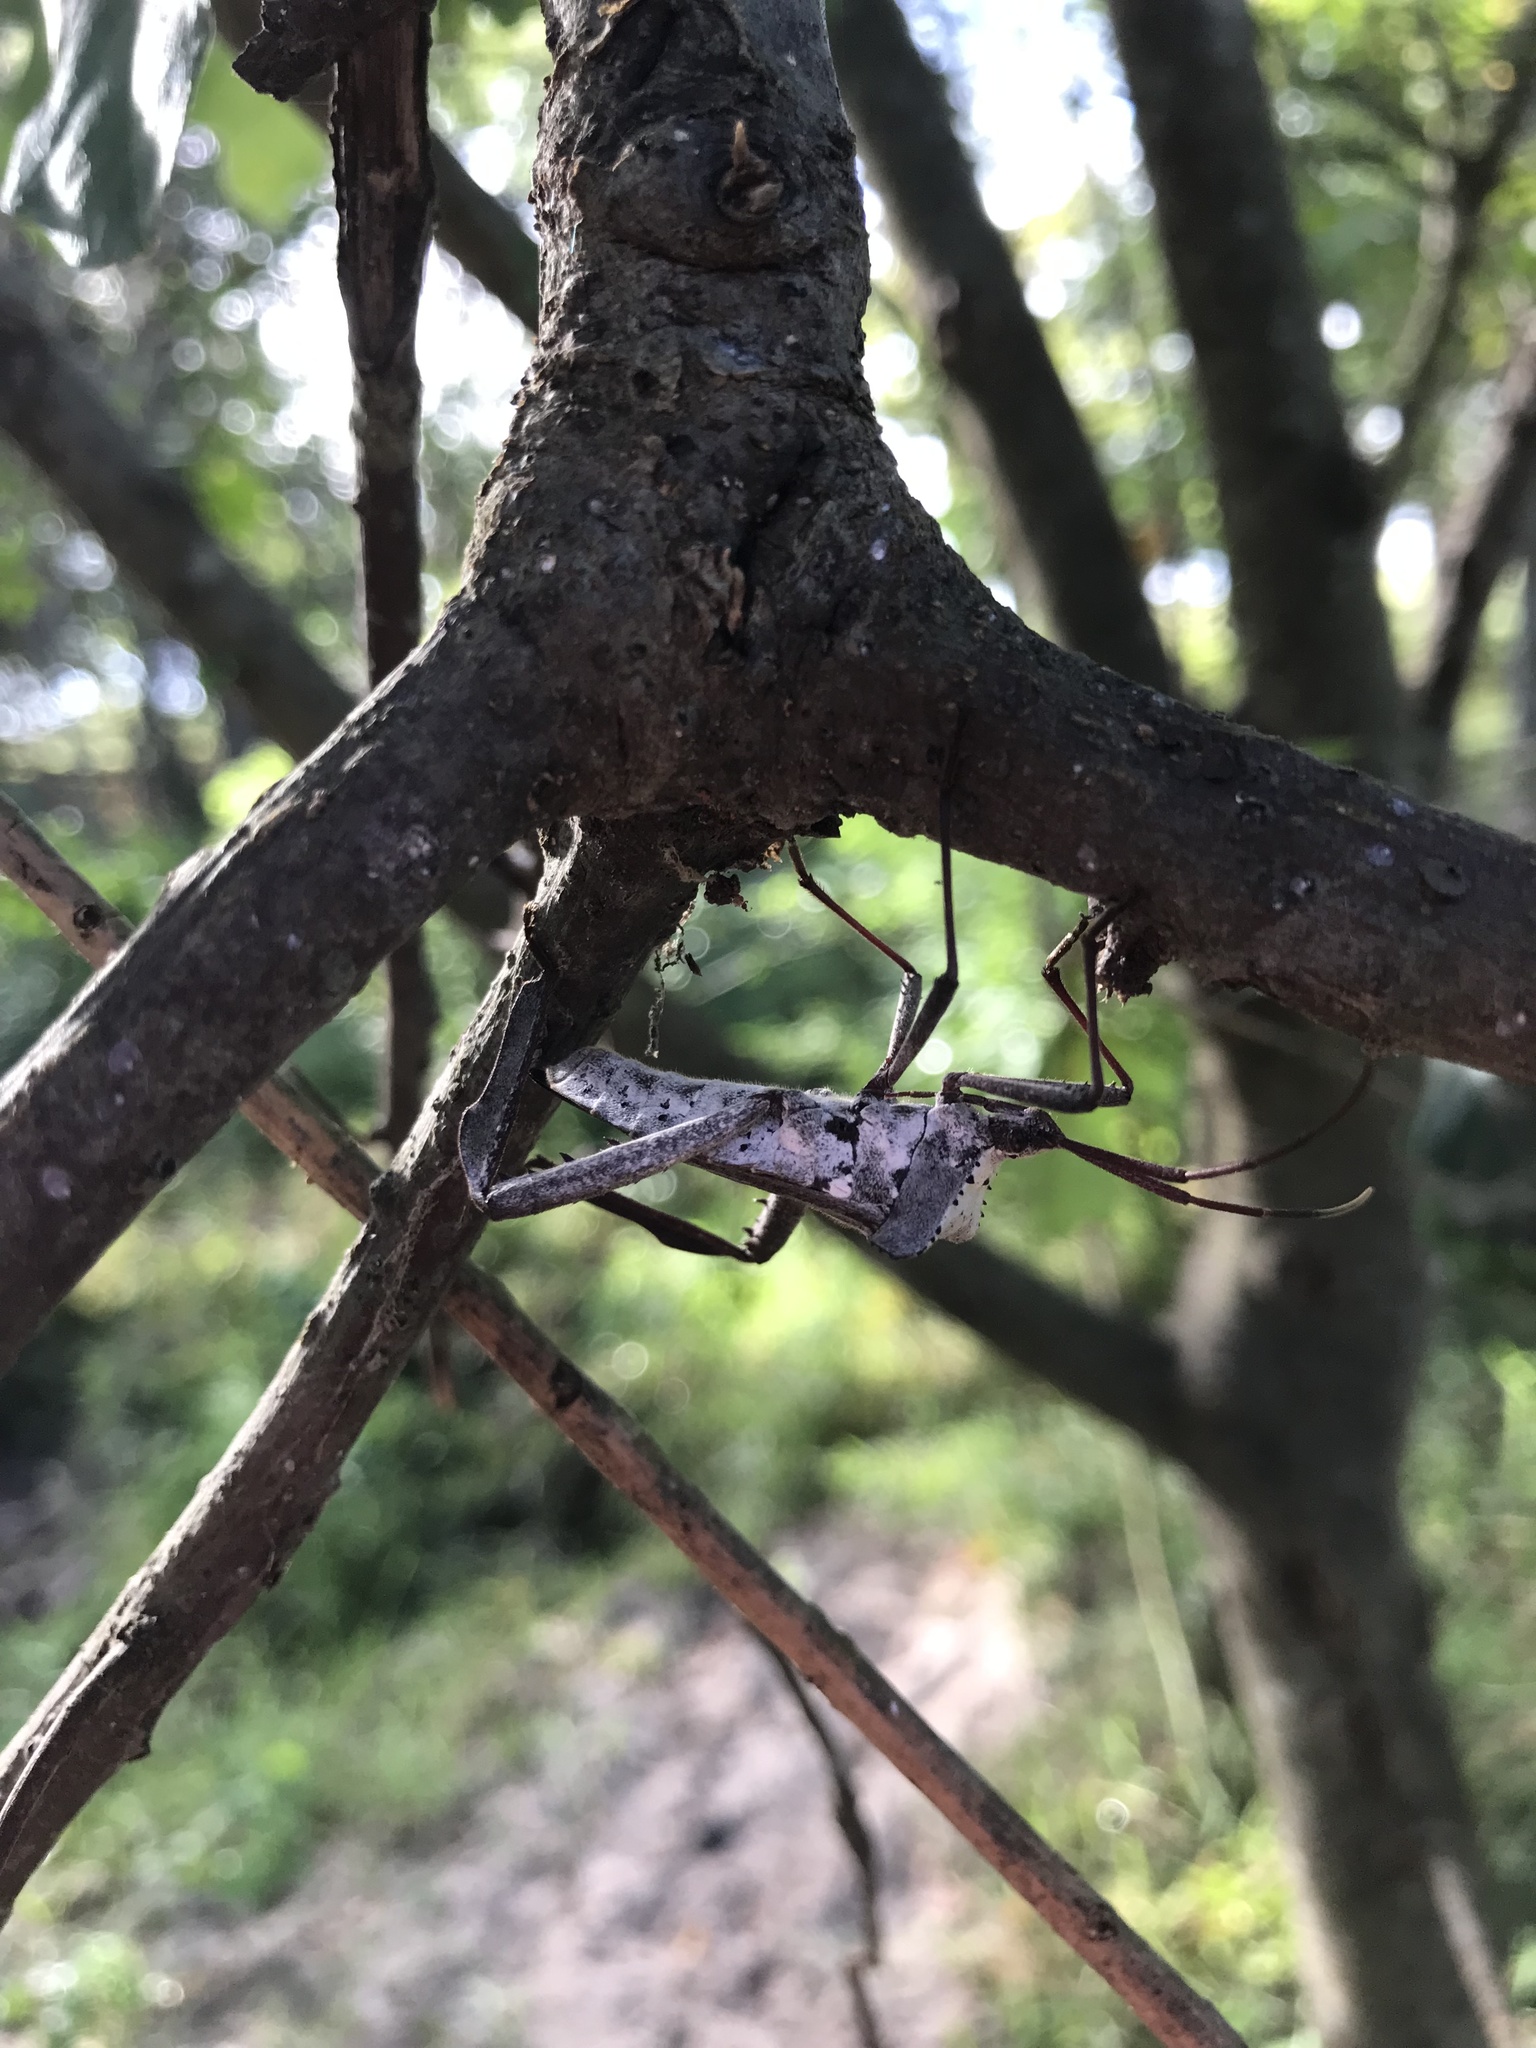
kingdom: Animalia
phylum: Arthropoda
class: Insecta
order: Hemiptera
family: Coreidae
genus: Acanthocephala
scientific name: Acanthocephala declivis
